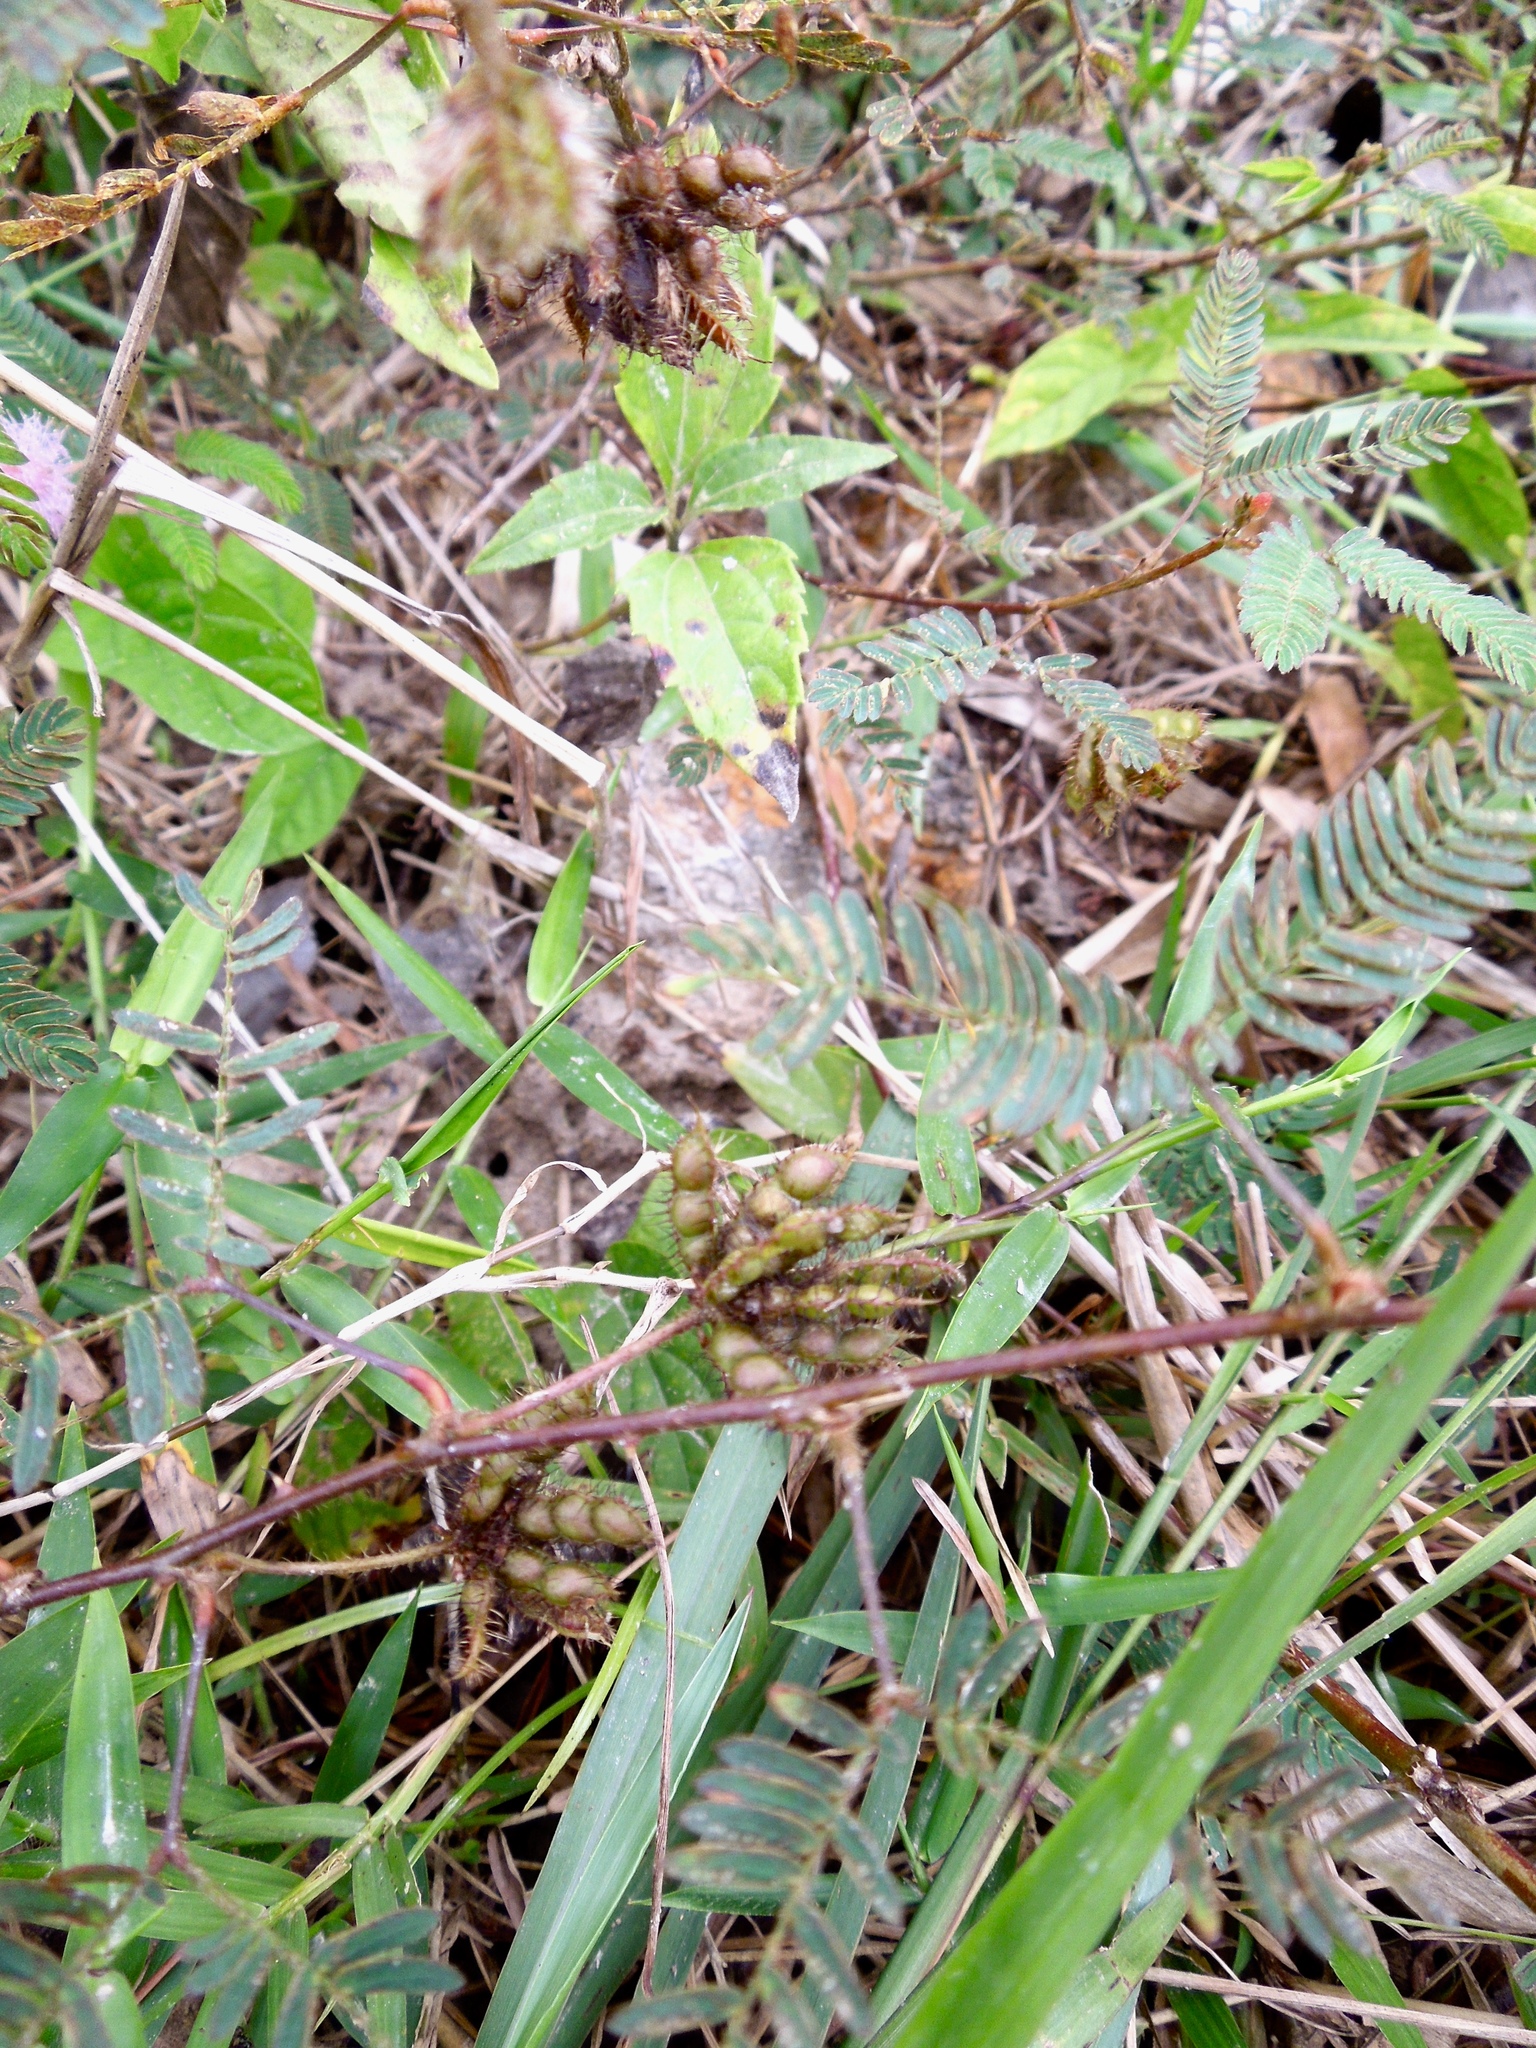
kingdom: Plantae
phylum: Tracheophyta
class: Magnoliopsida
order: Fabales
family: Fabaceae
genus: Mimosa
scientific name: Mimosa pudica
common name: Sensitive plant
